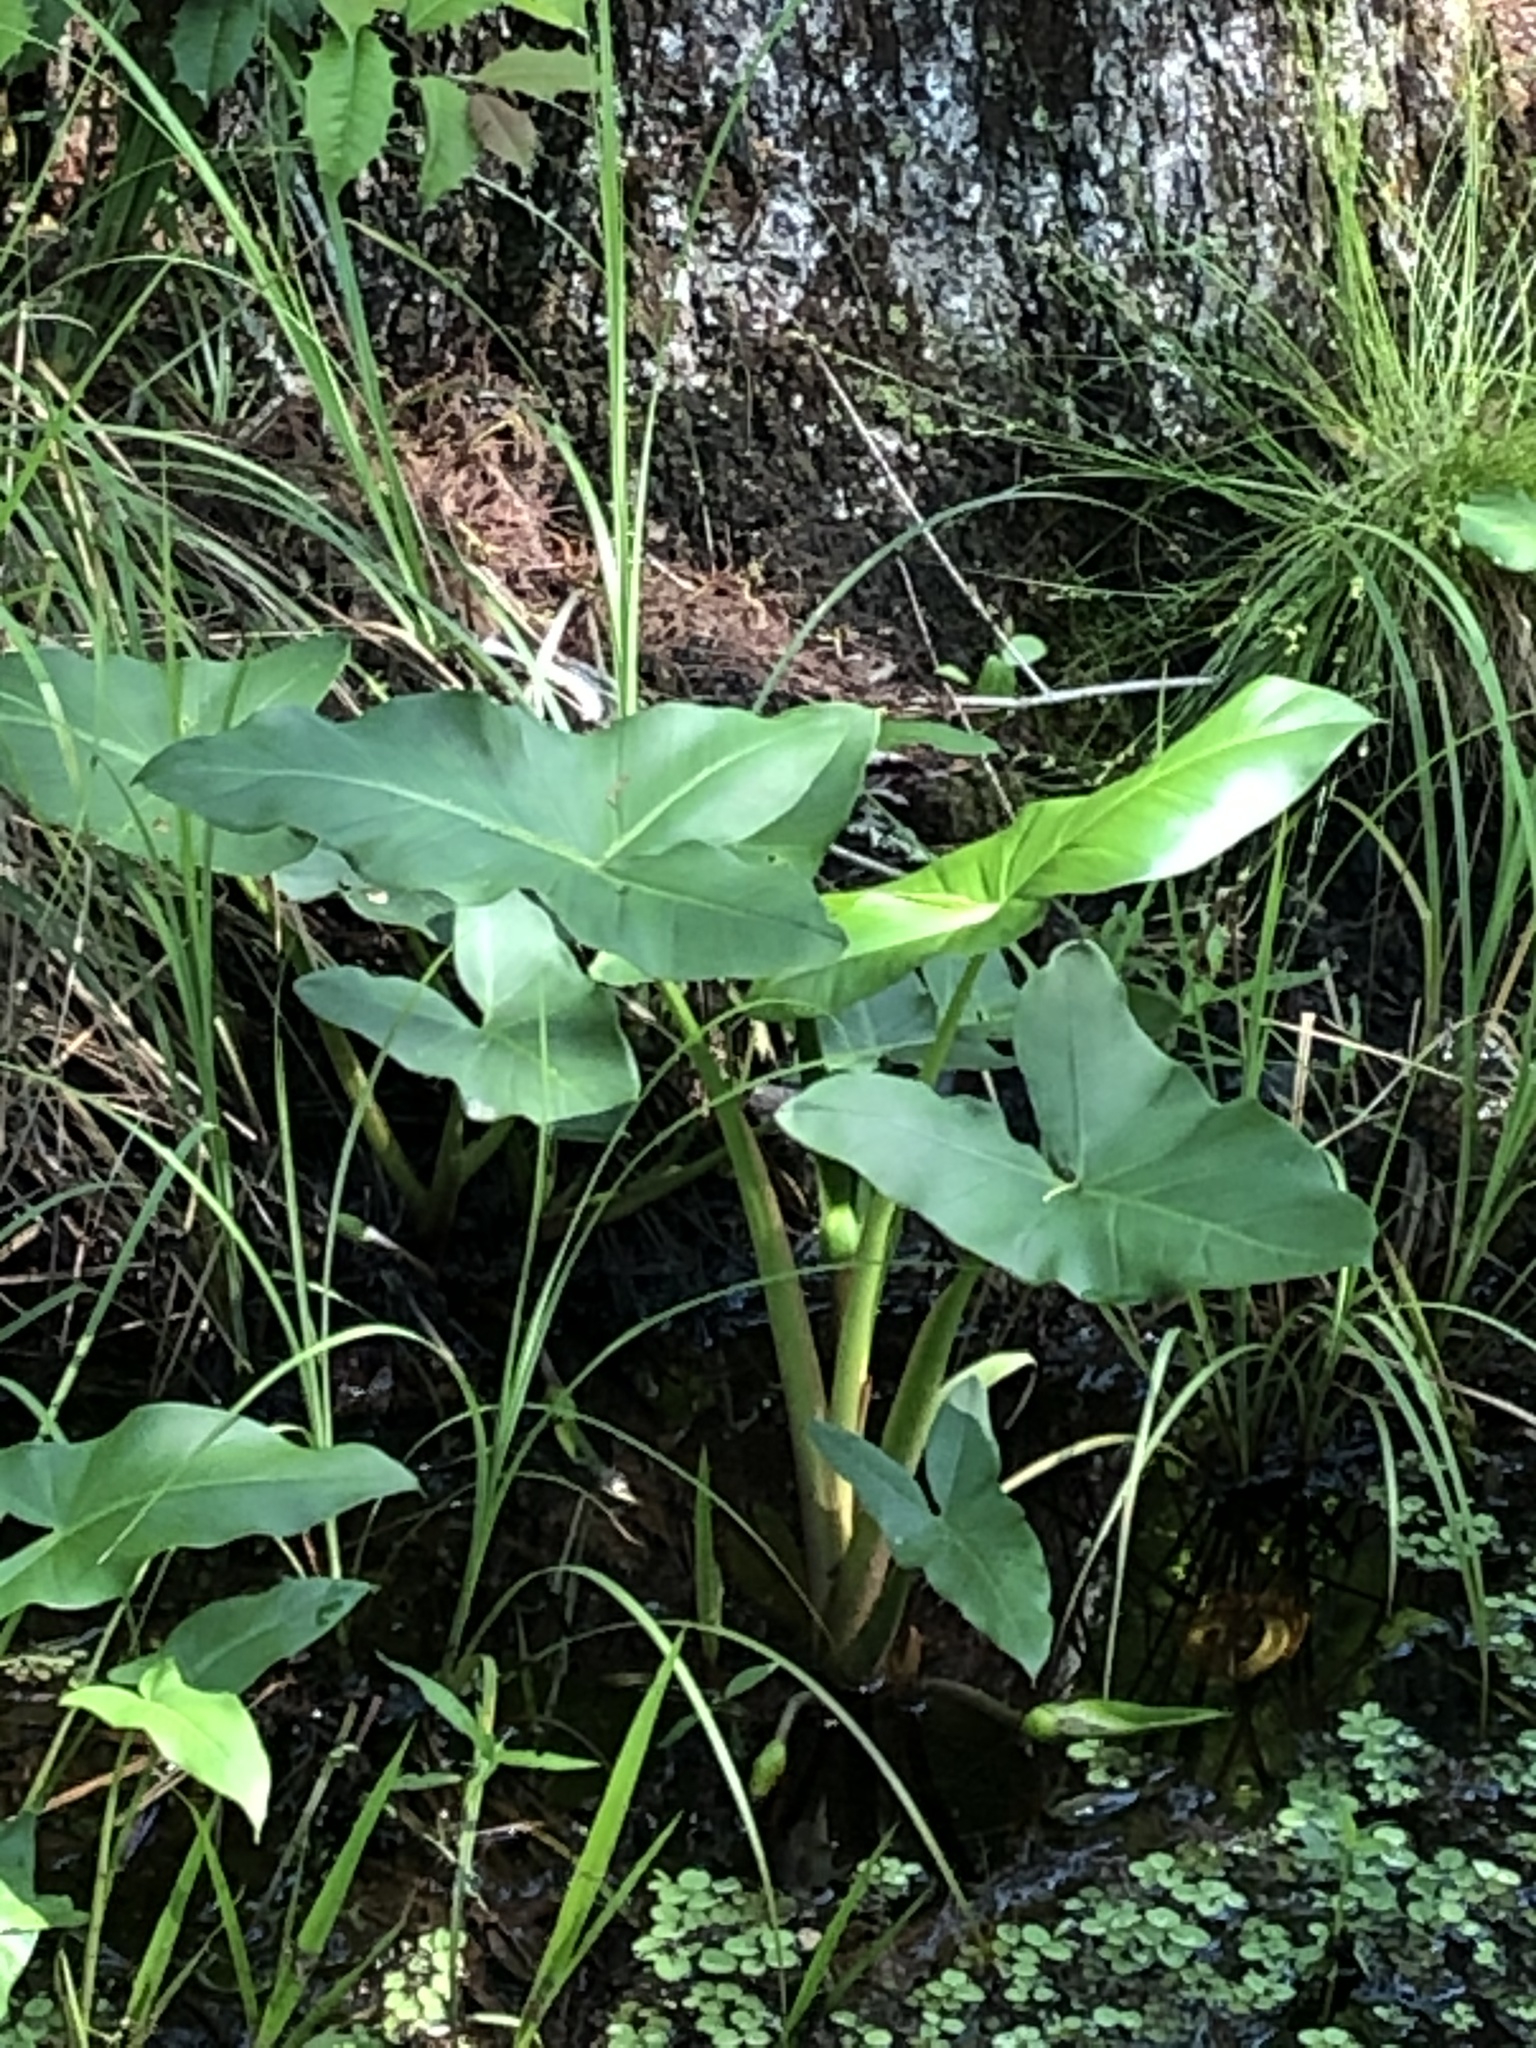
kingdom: Plantae
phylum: Tracheophyta
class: Liliopsida
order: Alismatales
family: Araceae
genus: Peltandra
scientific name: Peltandra virginica
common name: Arrow arum
